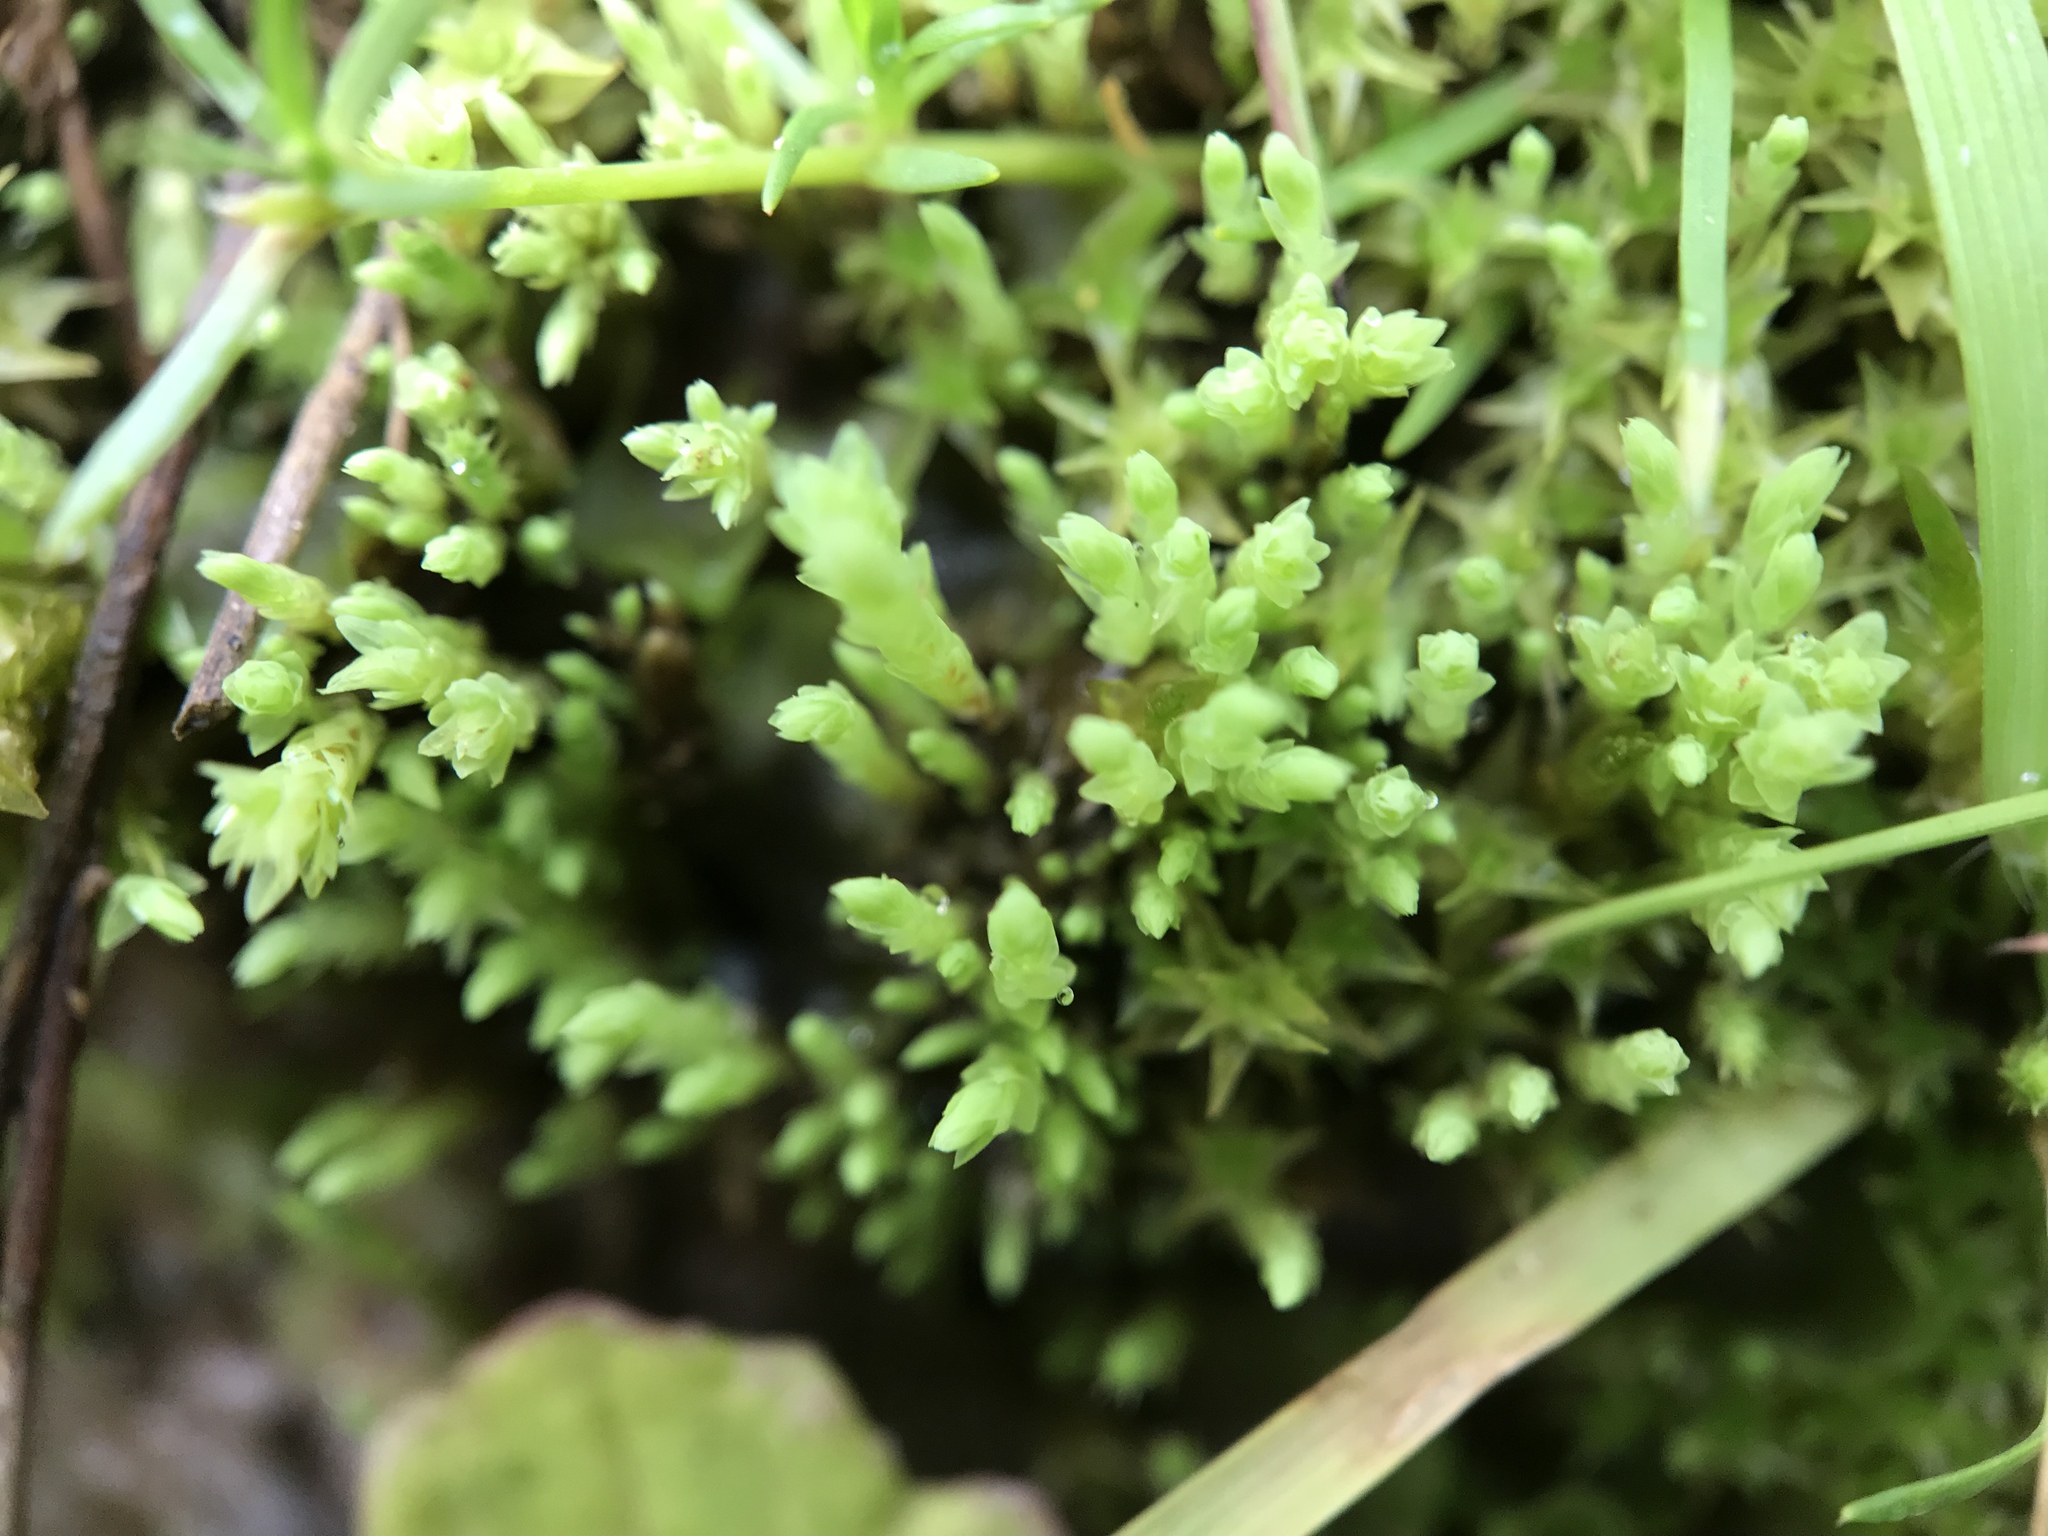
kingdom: Plantae
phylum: Bryophyta
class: Bryopsida
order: Bryales
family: Mniaceae
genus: Pohlia
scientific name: Pohlia wahlenbergii
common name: Wahlenberg's nodding moss
